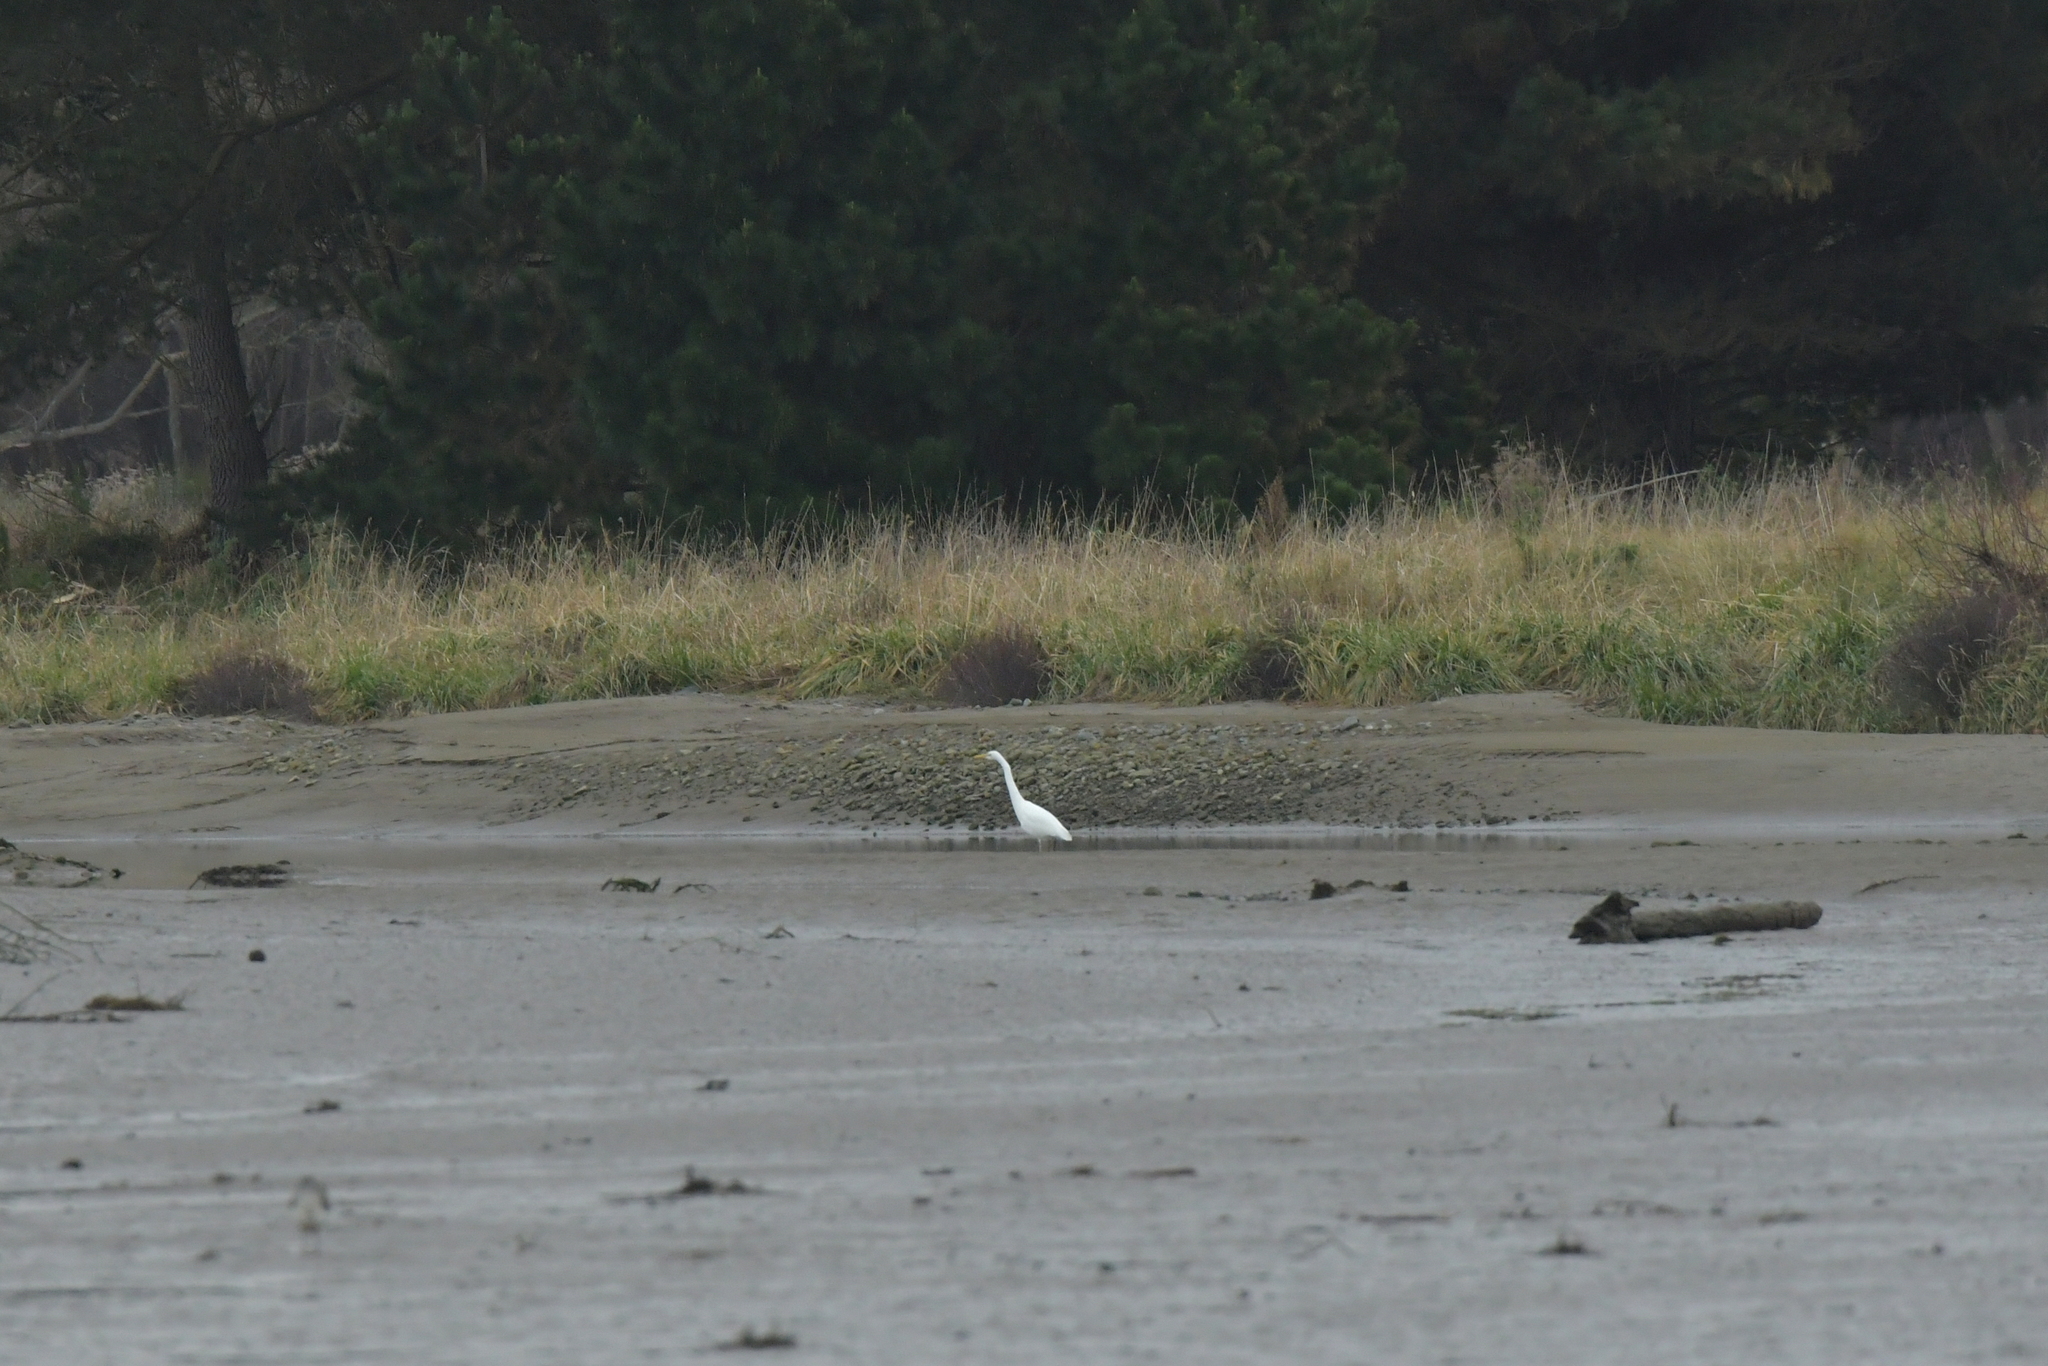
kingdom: Animalia
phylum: Chordata
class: Aves
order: Pelecaniformes
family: Ardeidae
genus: Ardea
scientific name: Ardea modesta
